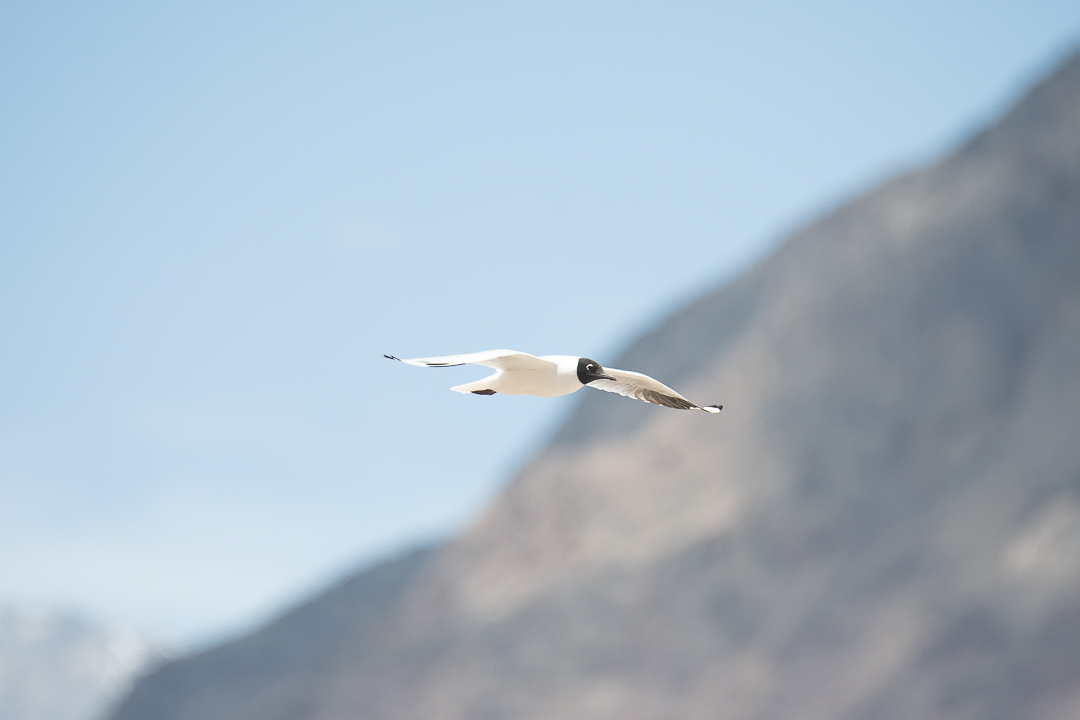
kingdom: Animalia
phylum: Chordata
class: Aves
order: Charadriiformes
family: Laridae
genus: Chroicocephalus
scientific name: Chroicocephalus serranus
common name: Andean gull
